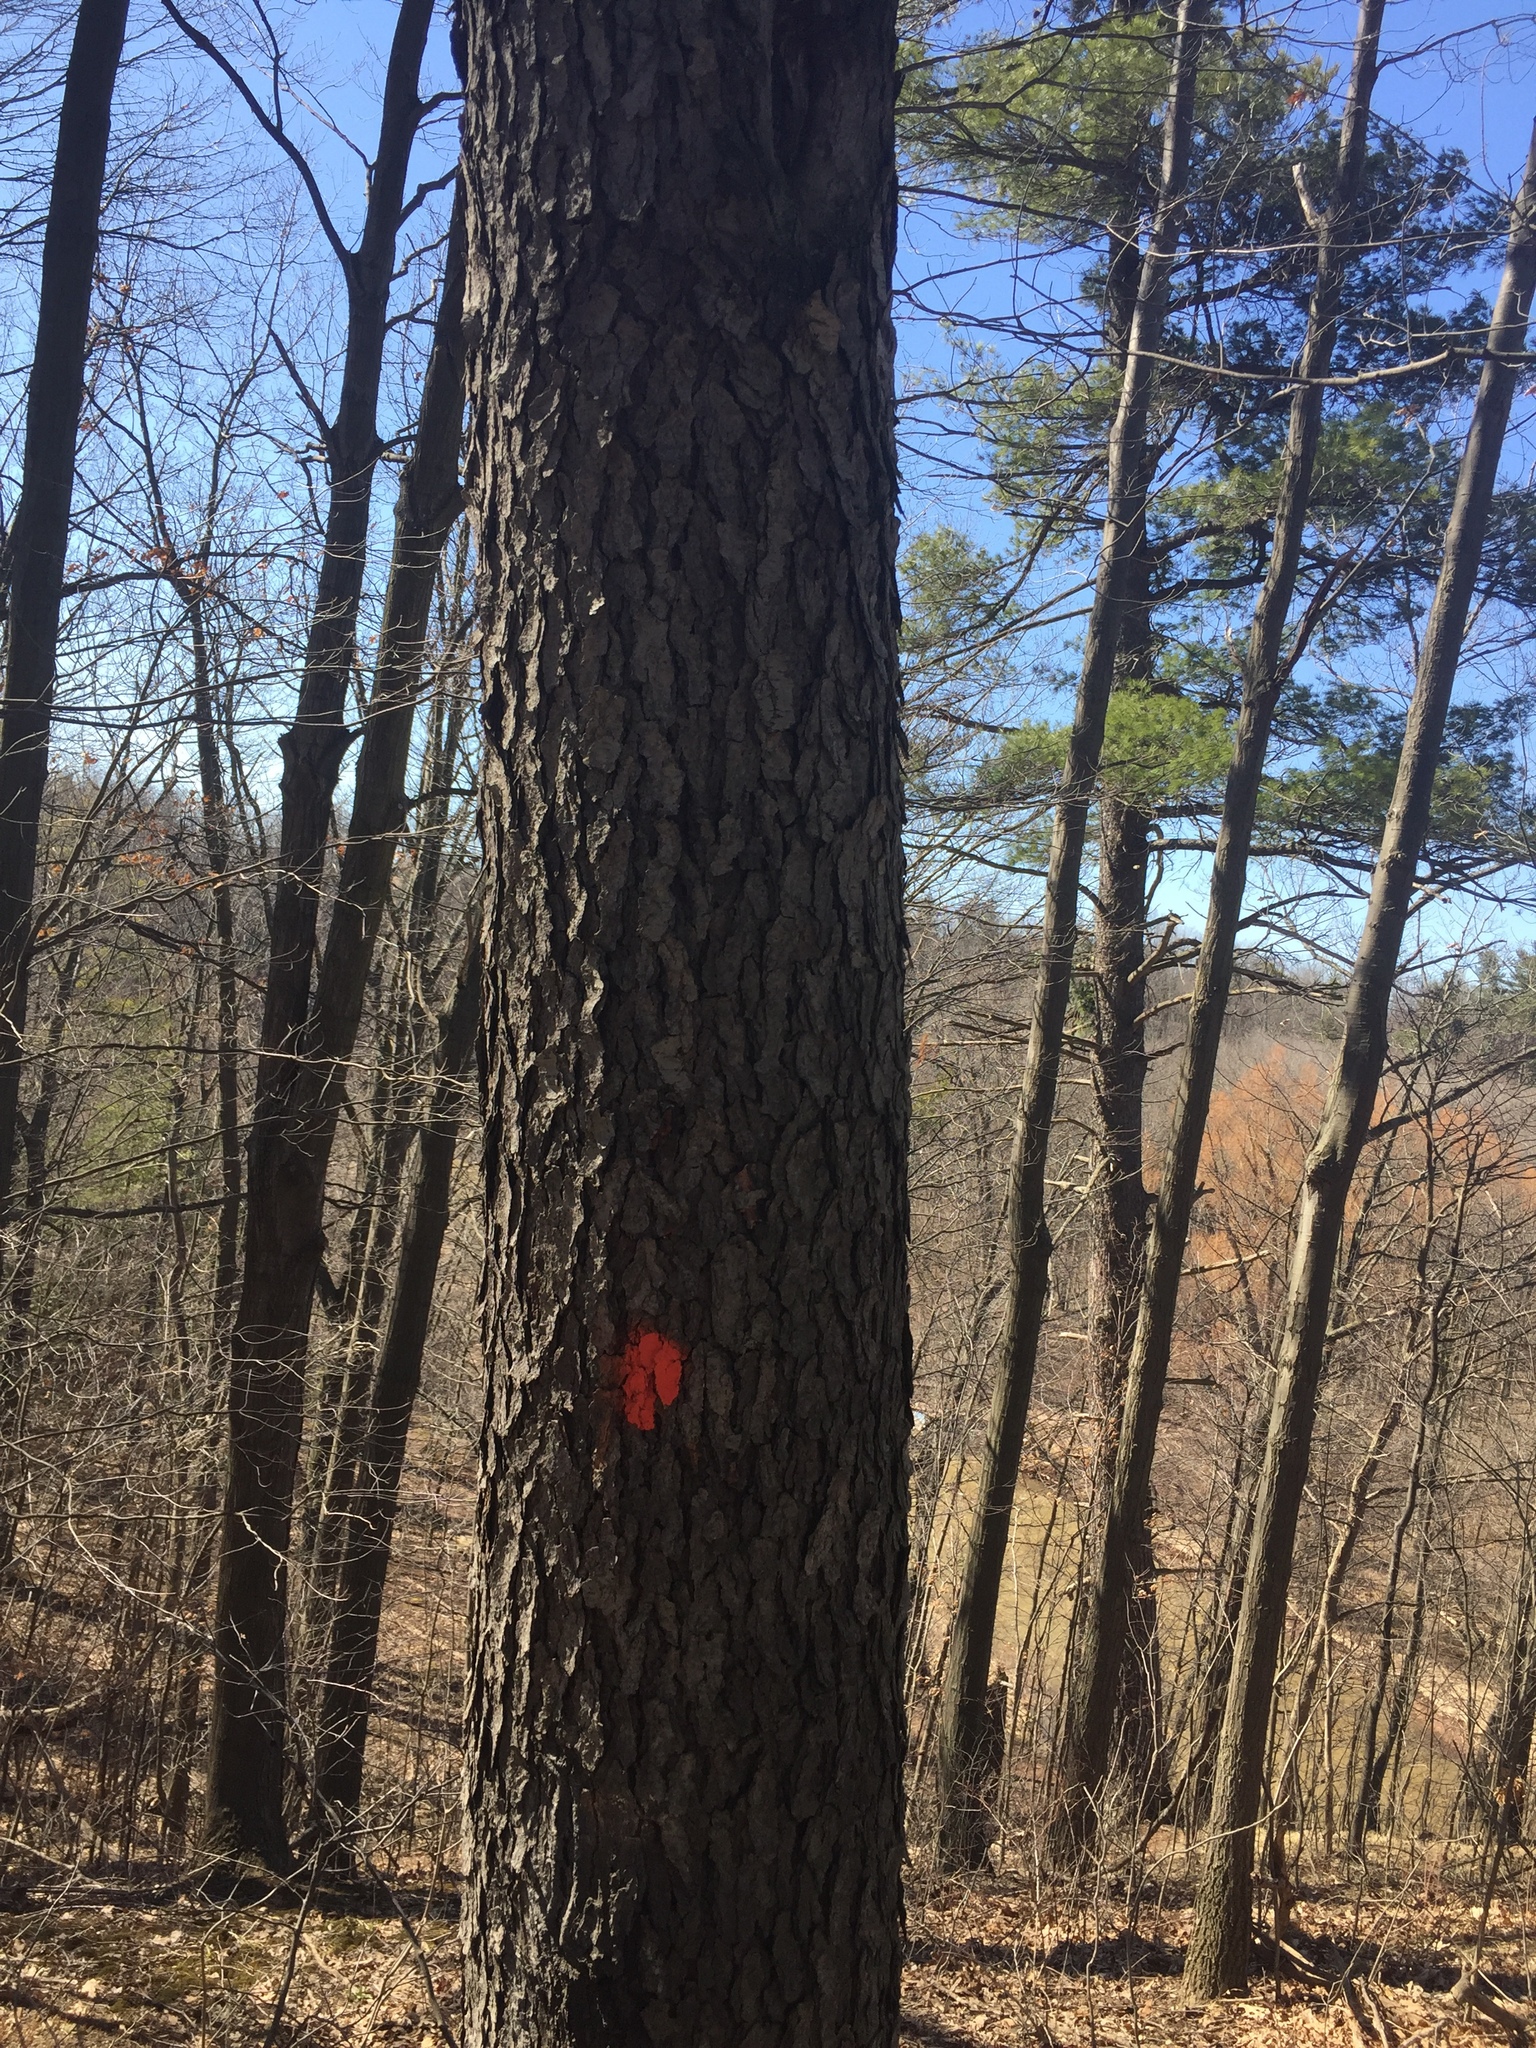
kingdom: Plantae
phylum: Tracheophyta
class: Magnoliopsida
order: Rosales
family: Rosaceae
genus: Prunus
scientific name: Prunus serotina
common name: Black cherry
